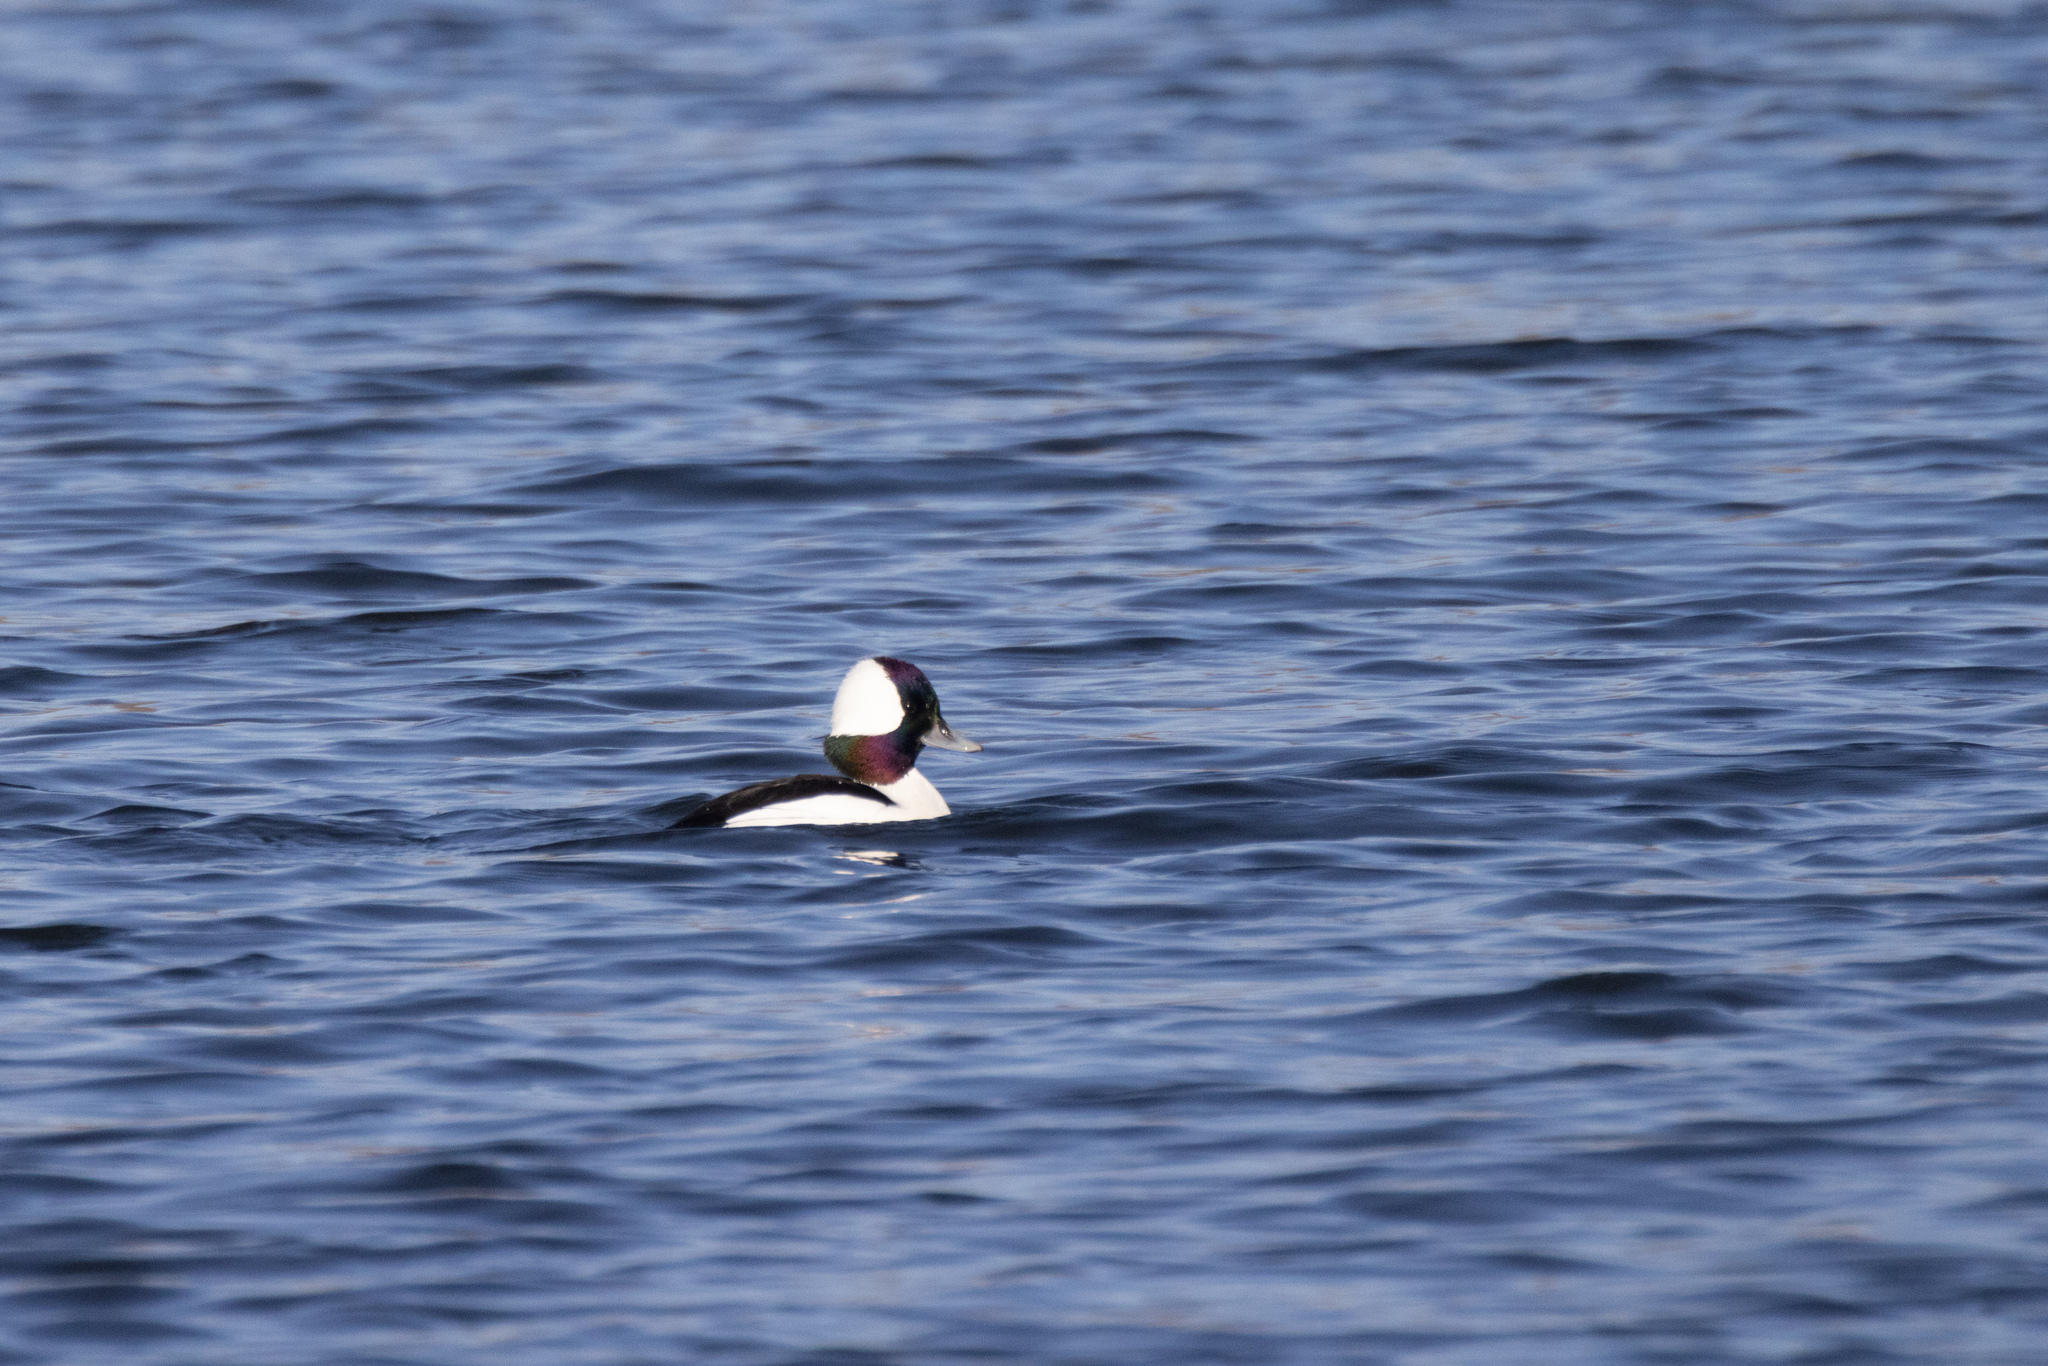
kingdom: Animalia
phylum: Chordata
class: Aves
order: Anseriformes
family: Anatidae
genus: Bucephala
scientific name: Bucephala albeola
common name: Bufflehead
